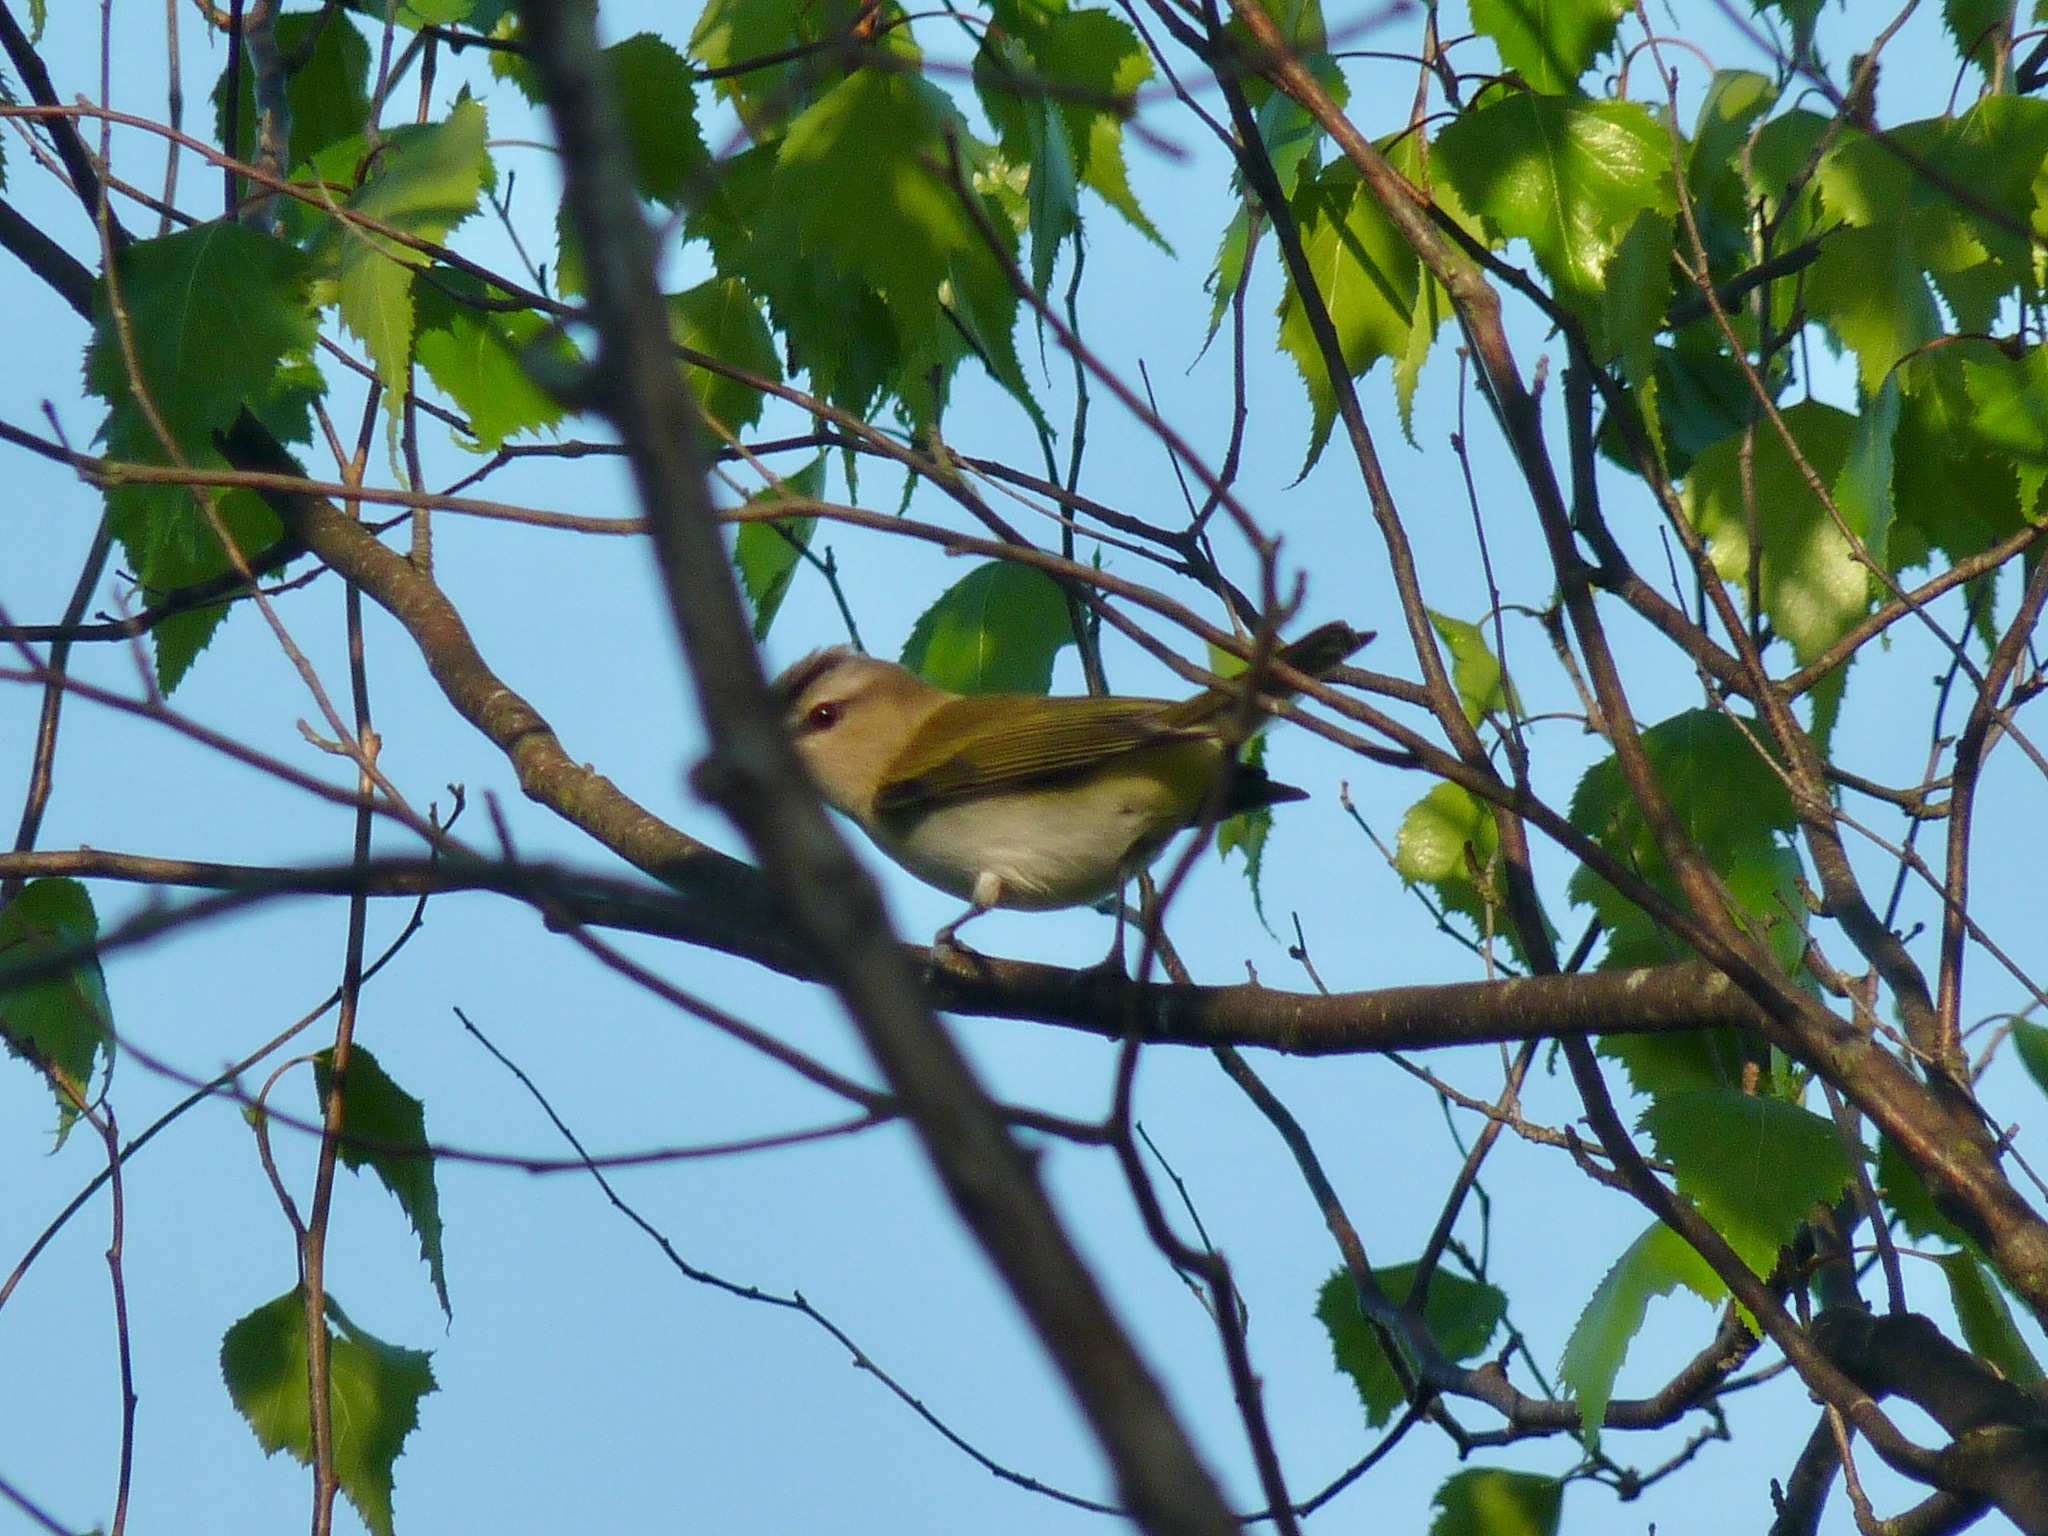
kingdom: Animalia
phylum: Chordata
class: Aves
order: Passeriformes
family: Vireonidae
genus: Vireo
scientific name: Vireo olivaceus
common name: Red-eyed vireo
